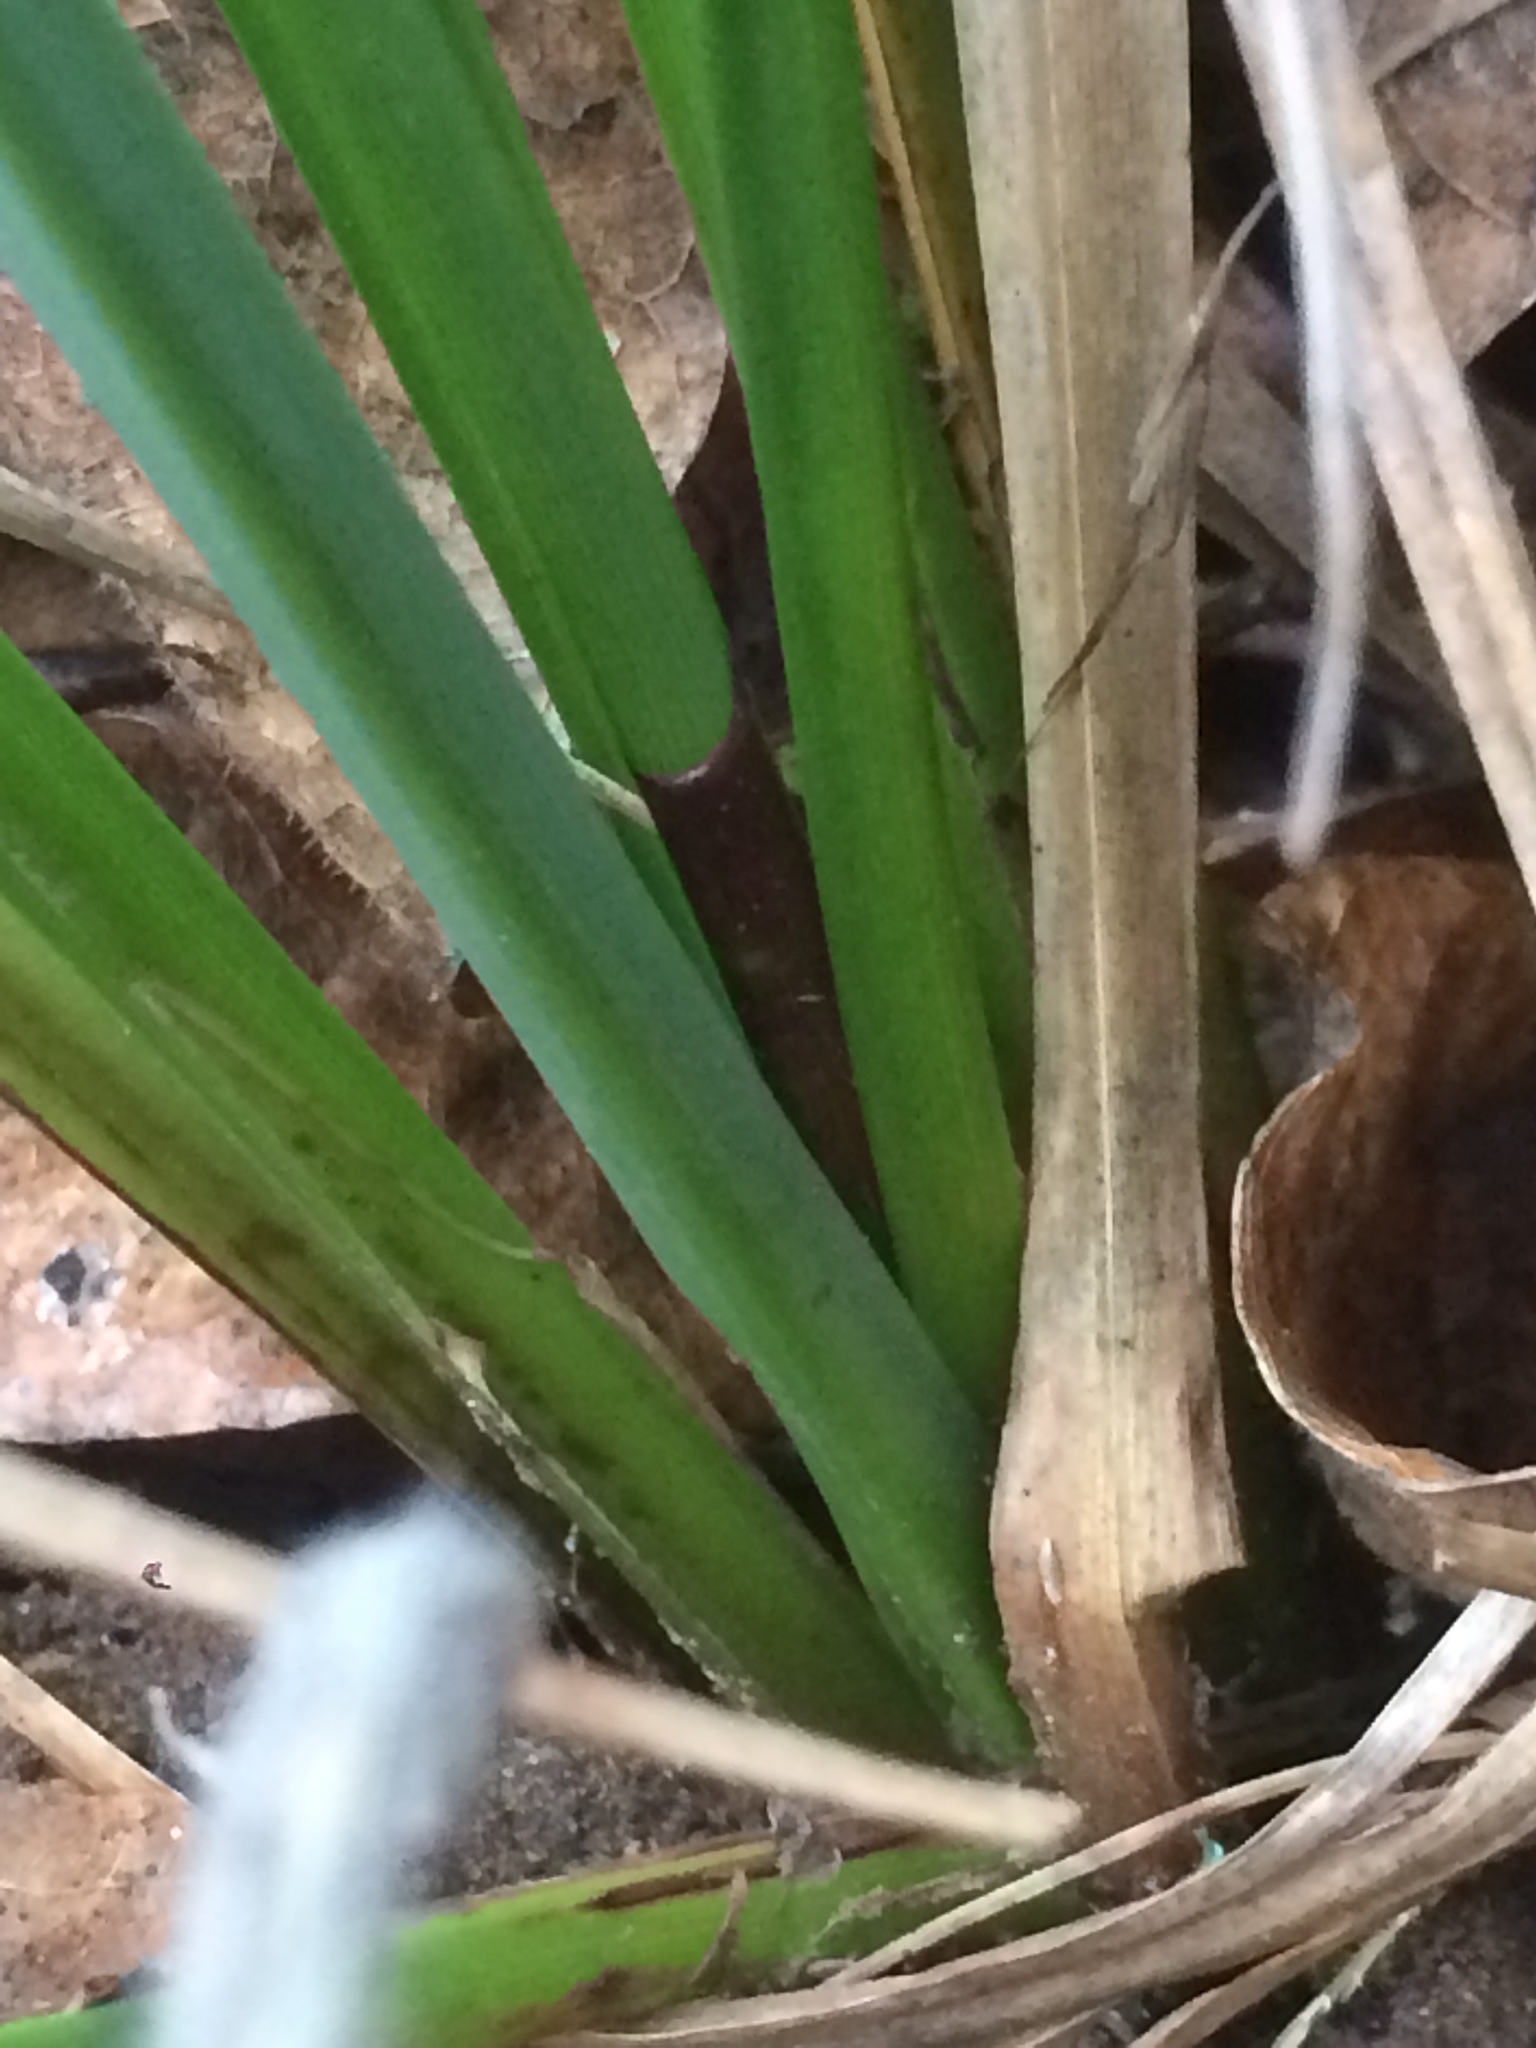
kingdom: Plantae
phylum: Tracheophyta
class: Liliopsida
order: Poales
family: Cyperaceae
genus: Carex
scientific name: Carex obnupta
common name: Slough sedge
